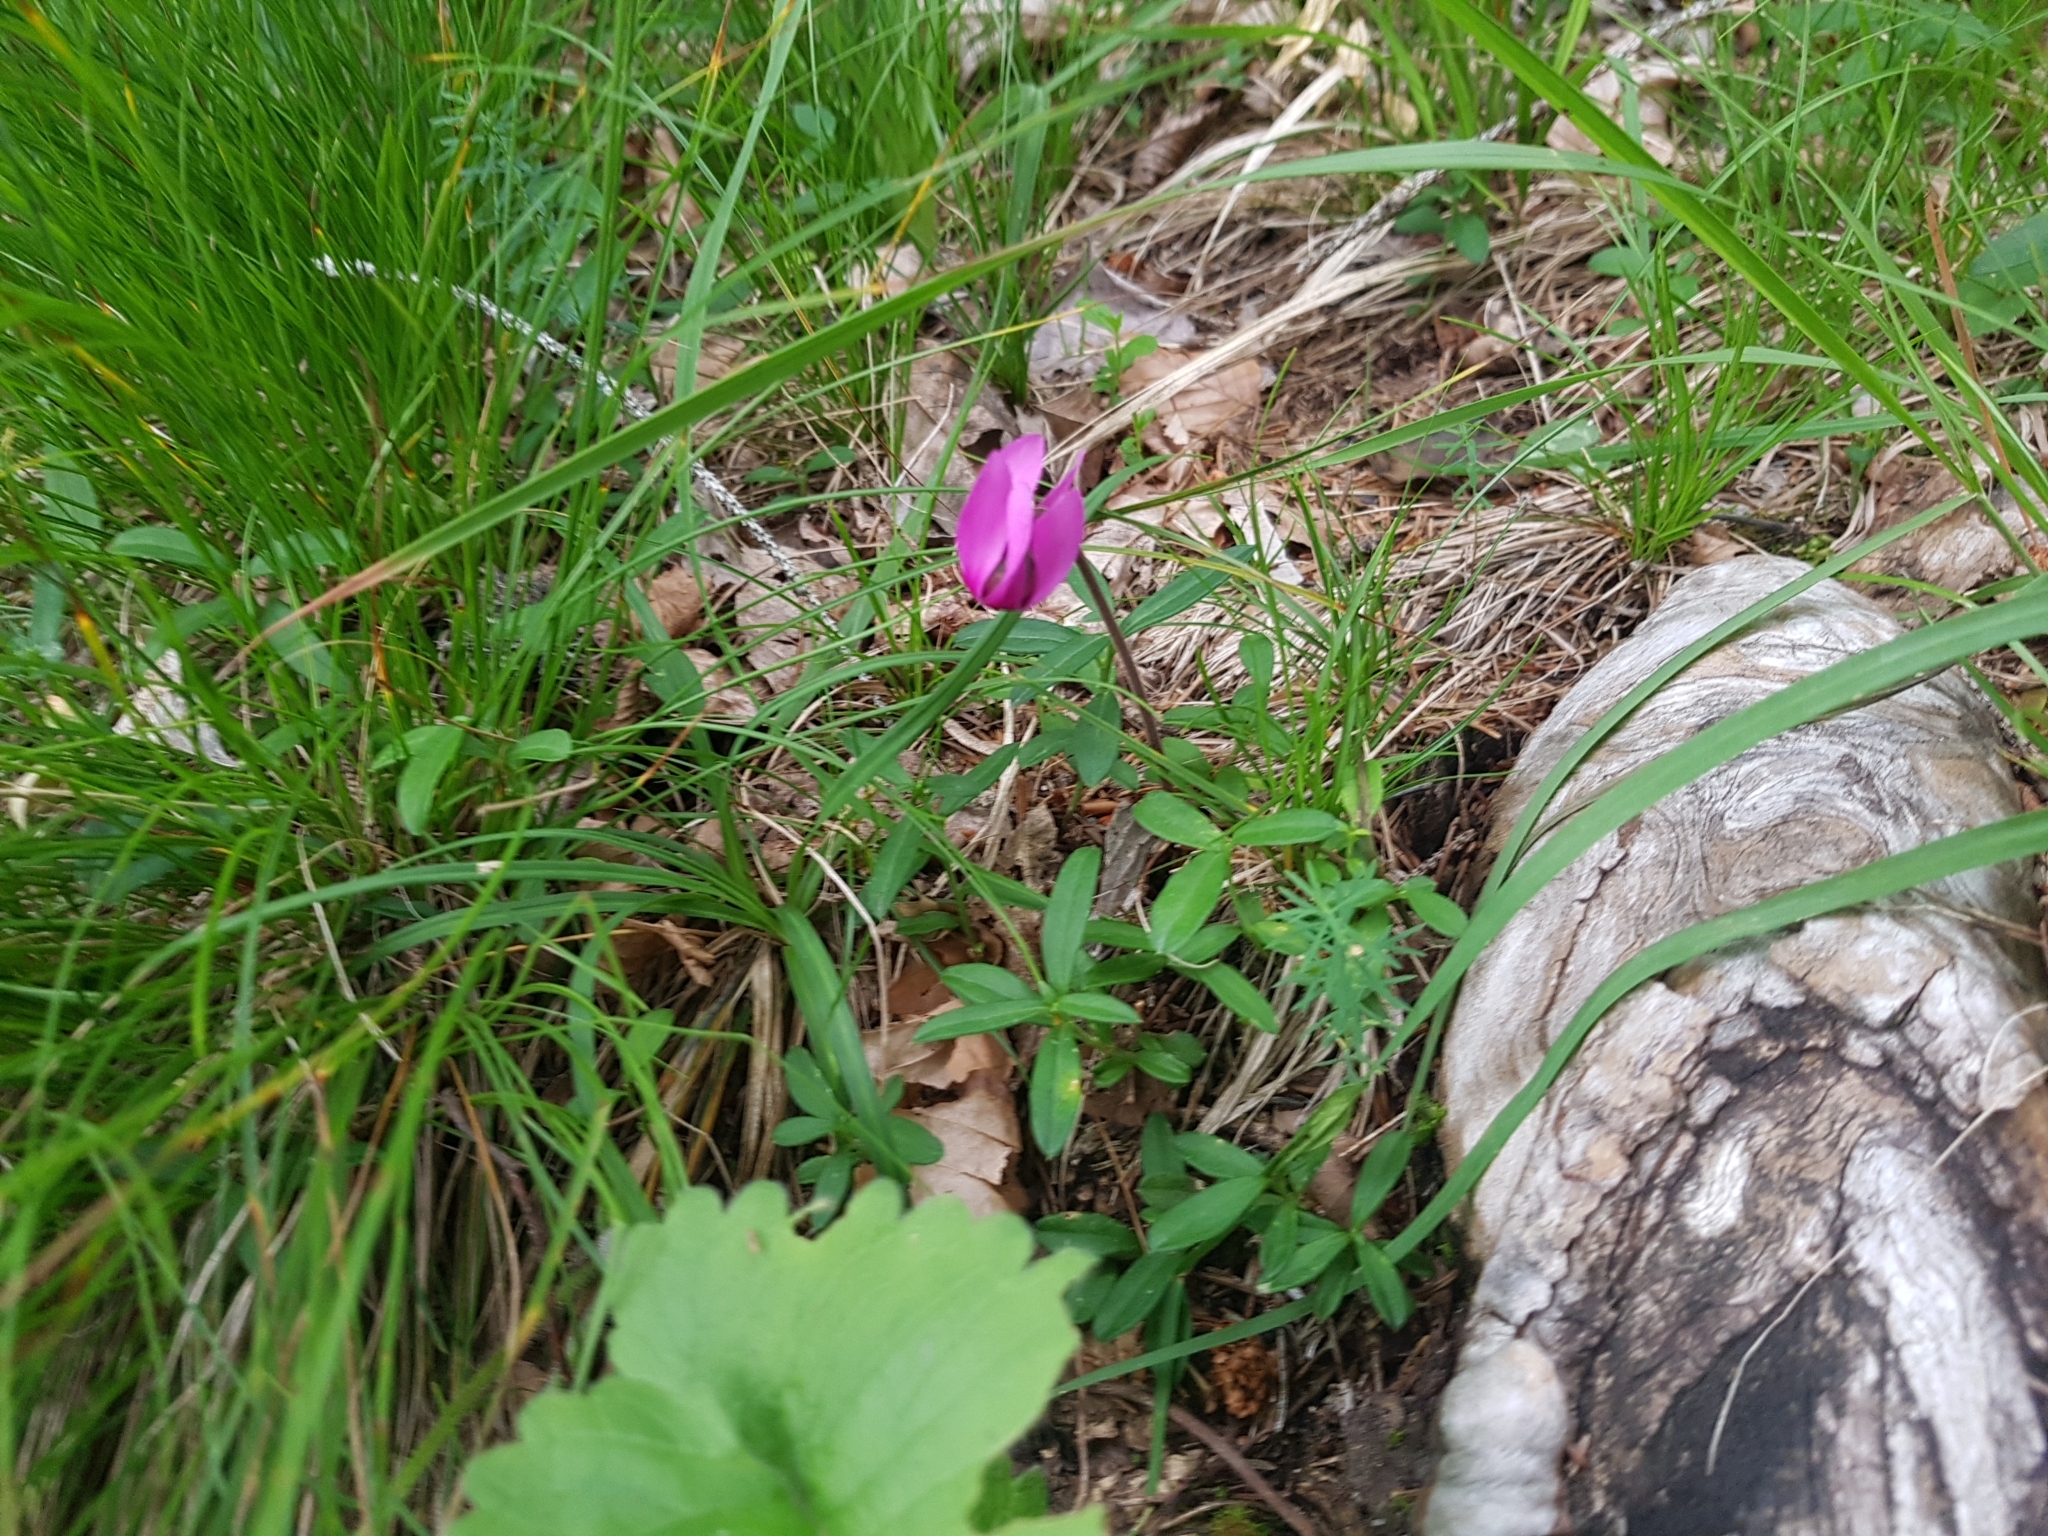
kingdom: Plantae
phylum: Tracheophyta
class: Magnoliopsida
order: Ericales
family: Primulaceae
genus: Cyclamen
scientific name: Cyclamen purpurascens
